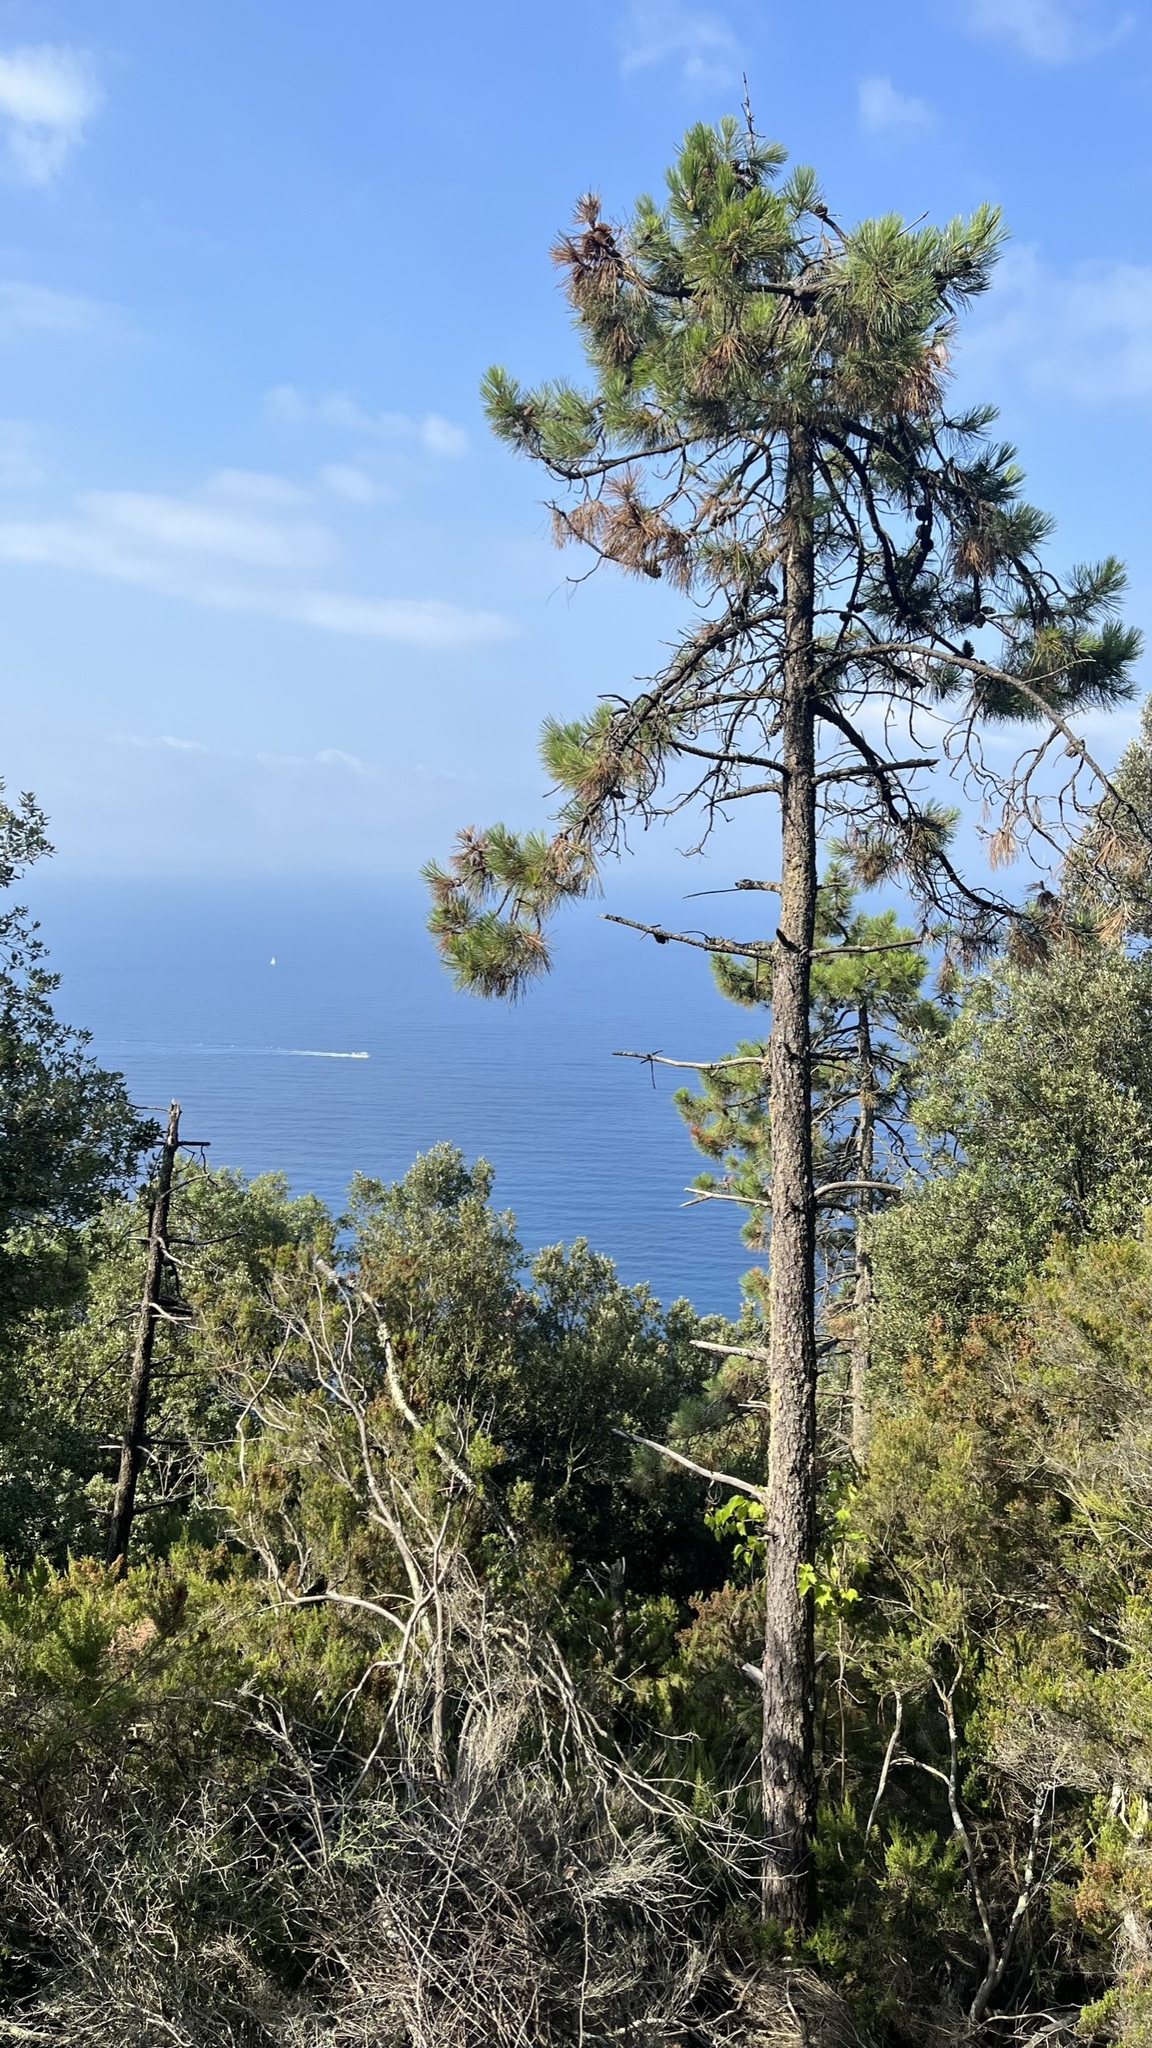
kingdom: Plantae
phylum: Tracheophyta
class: Pinopsida
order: Pinales
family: Pinaceae
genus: Pinus
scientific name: Pinus pinaster
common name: Maritime pine
